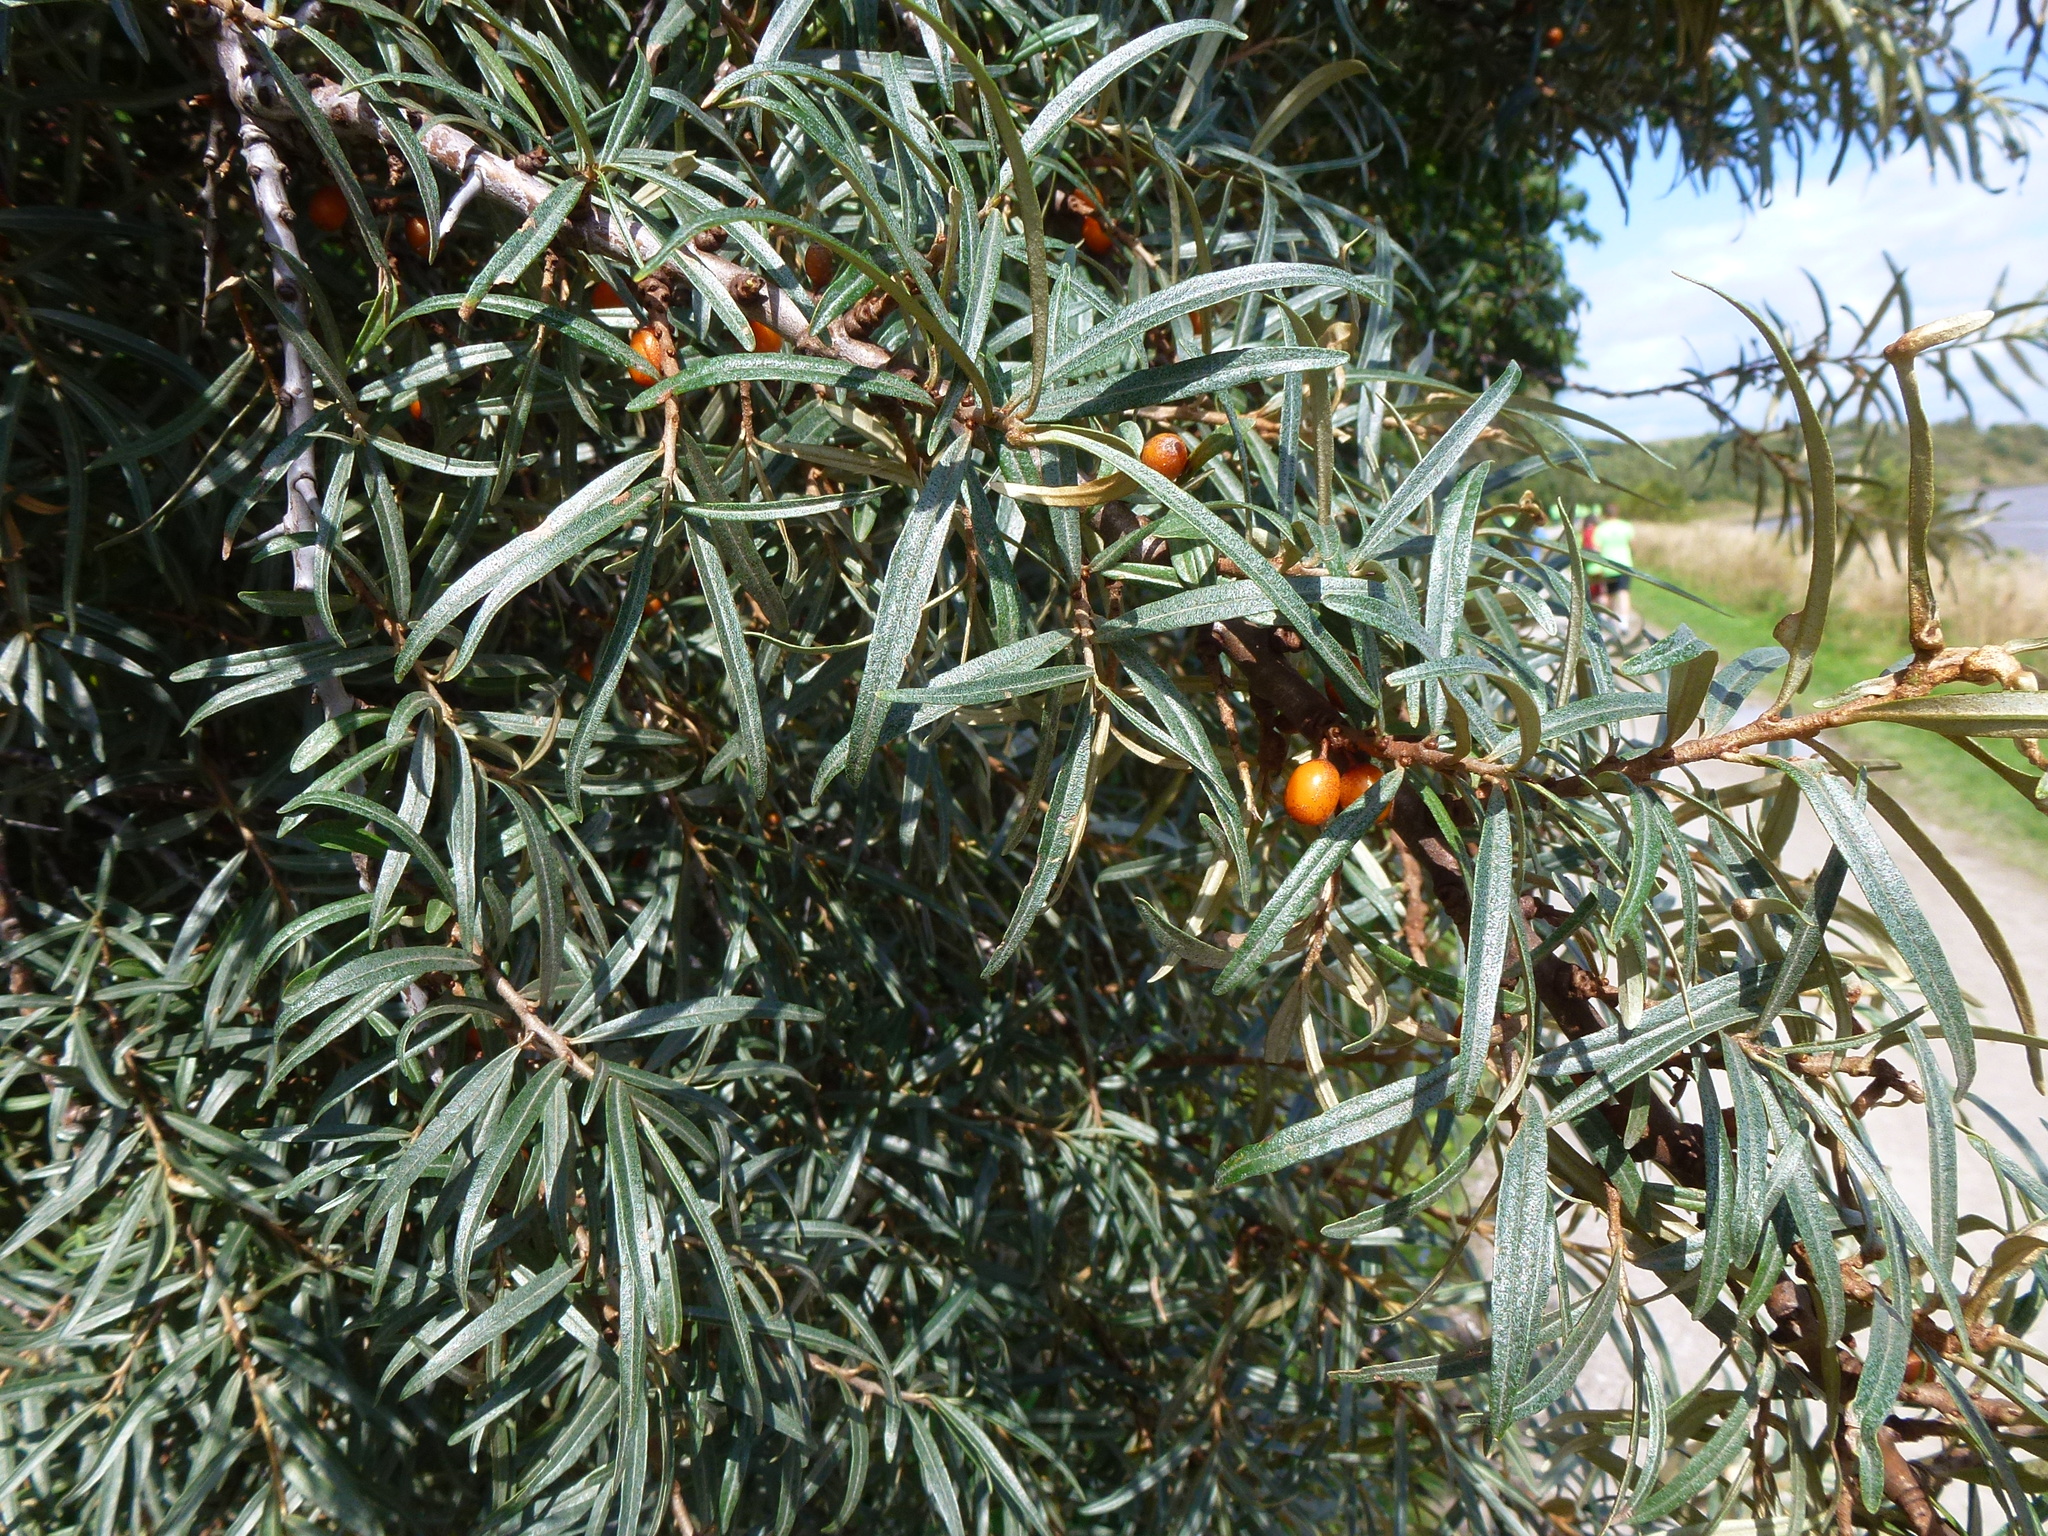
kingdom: Plantae
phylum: Tracheophyta
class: Magnoliopsida
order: Rosales
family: Elaeagnaceae
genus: Hippophae
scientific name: Hippophae rhamnoides
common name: Sea-buckthorn
